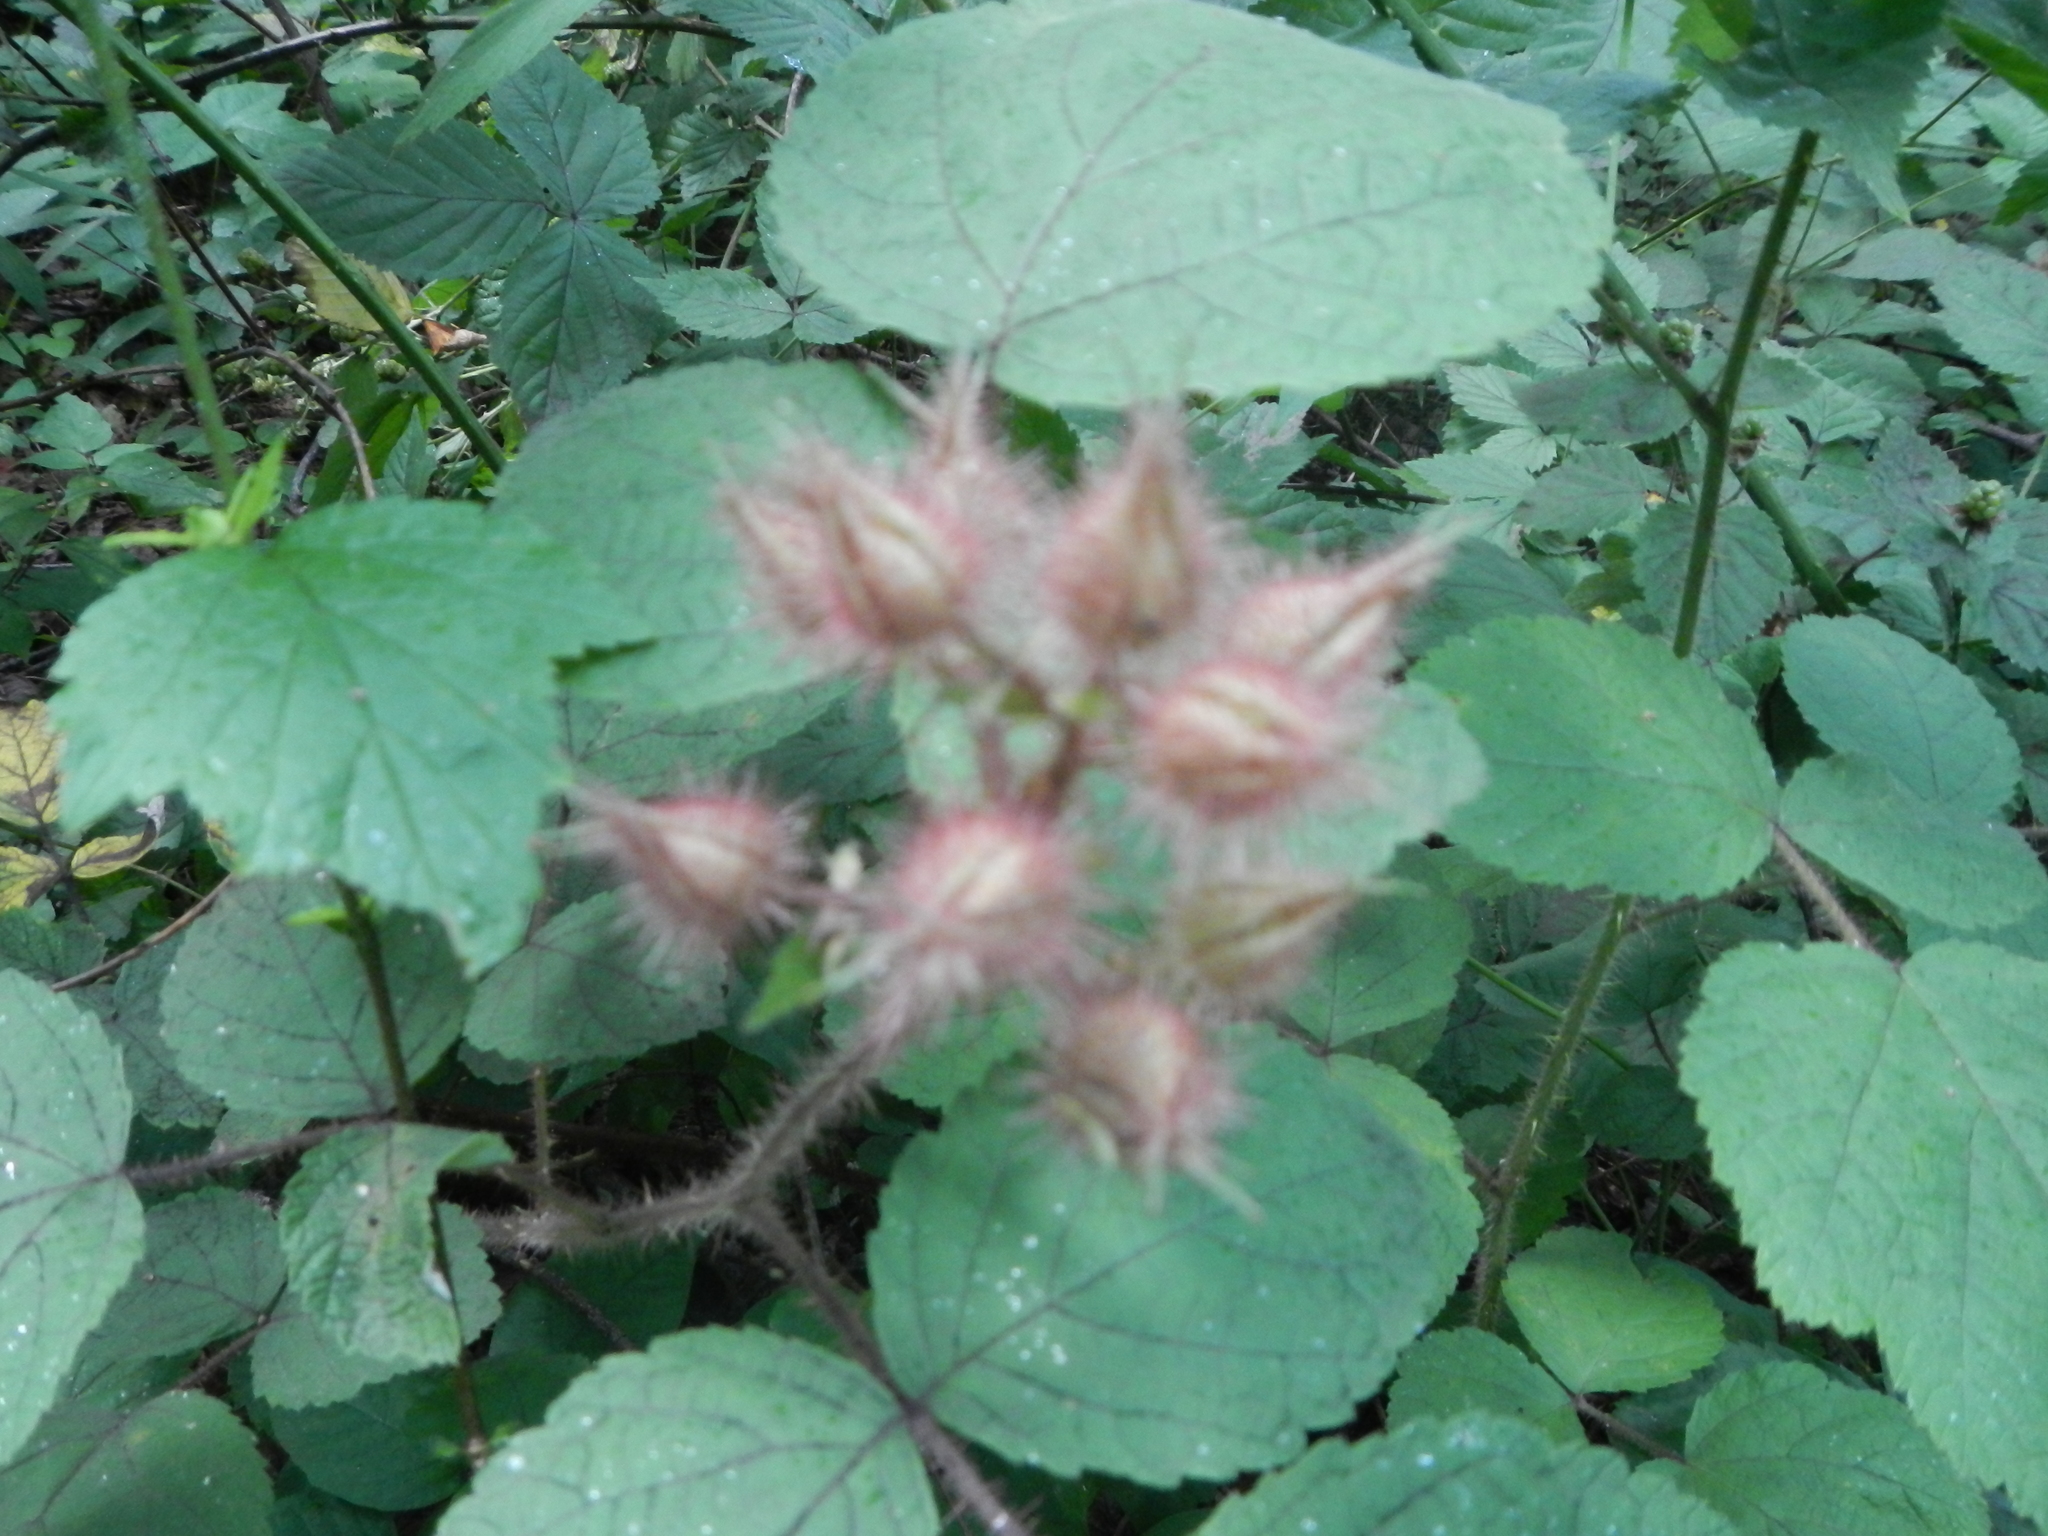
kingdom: Plantae
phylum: Tracheophyta
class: Magnoliopsida
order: Rosales
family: Rosaceae
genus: Rubus
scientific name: Rubus phoenicolasius
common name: Japanese wineberry
